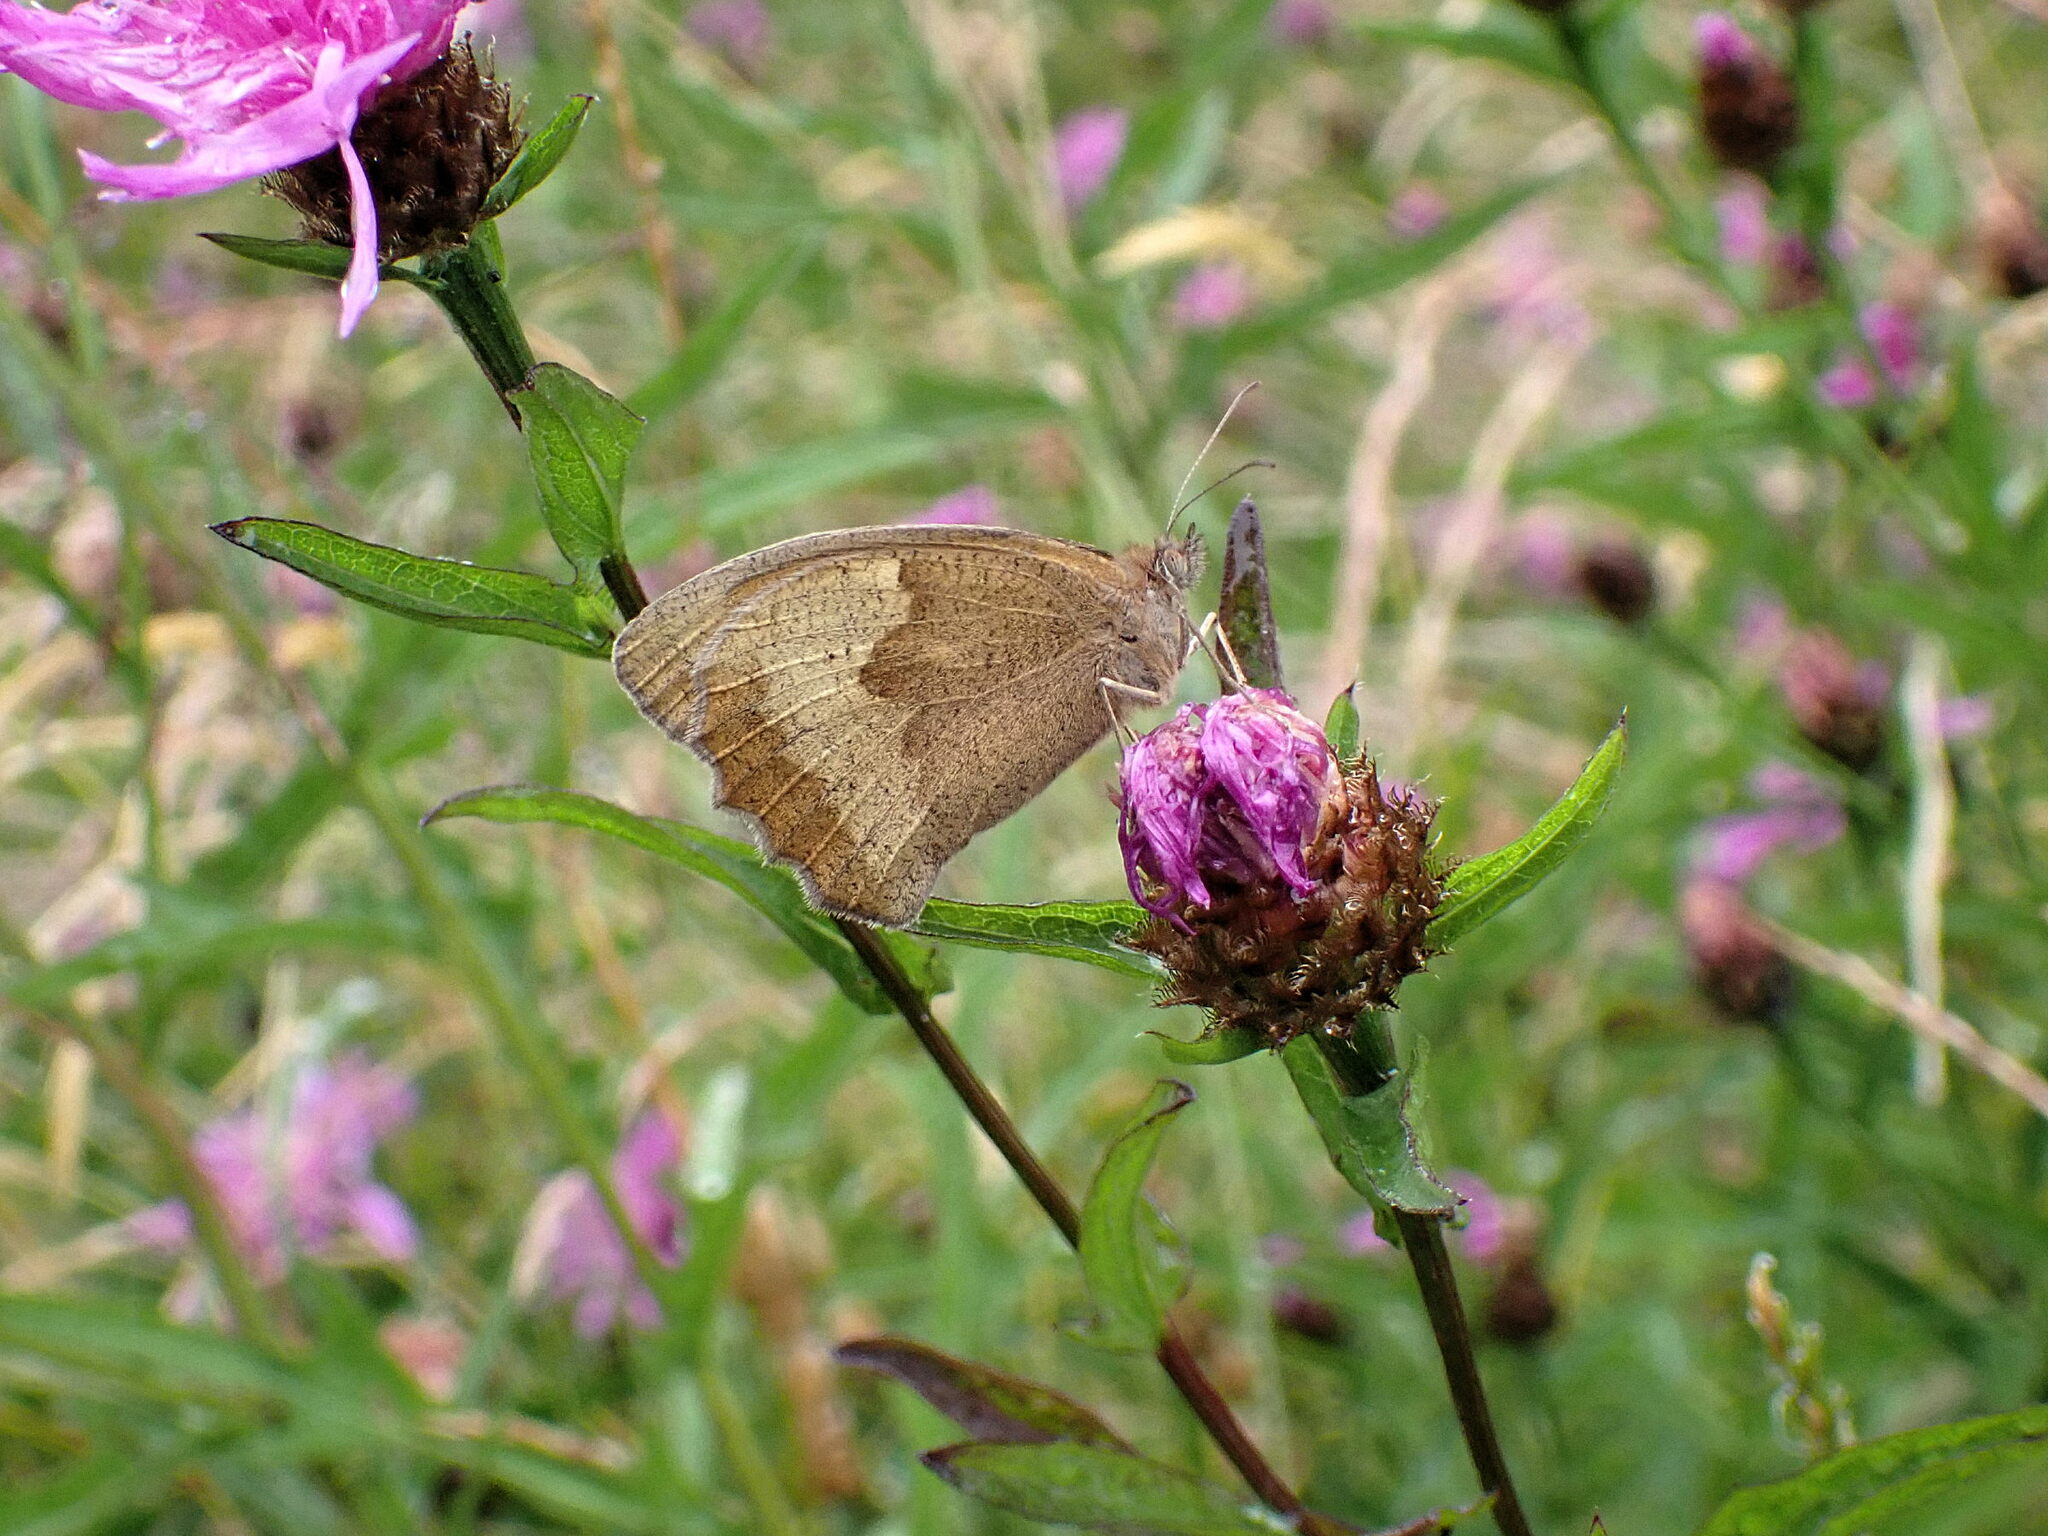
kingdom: Animalia
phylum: Arthropoda
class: Insecta
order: Lepidoptera
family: Nymphalidae
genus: Maniola
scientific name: Maniola jurtina
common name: Meadow brown
